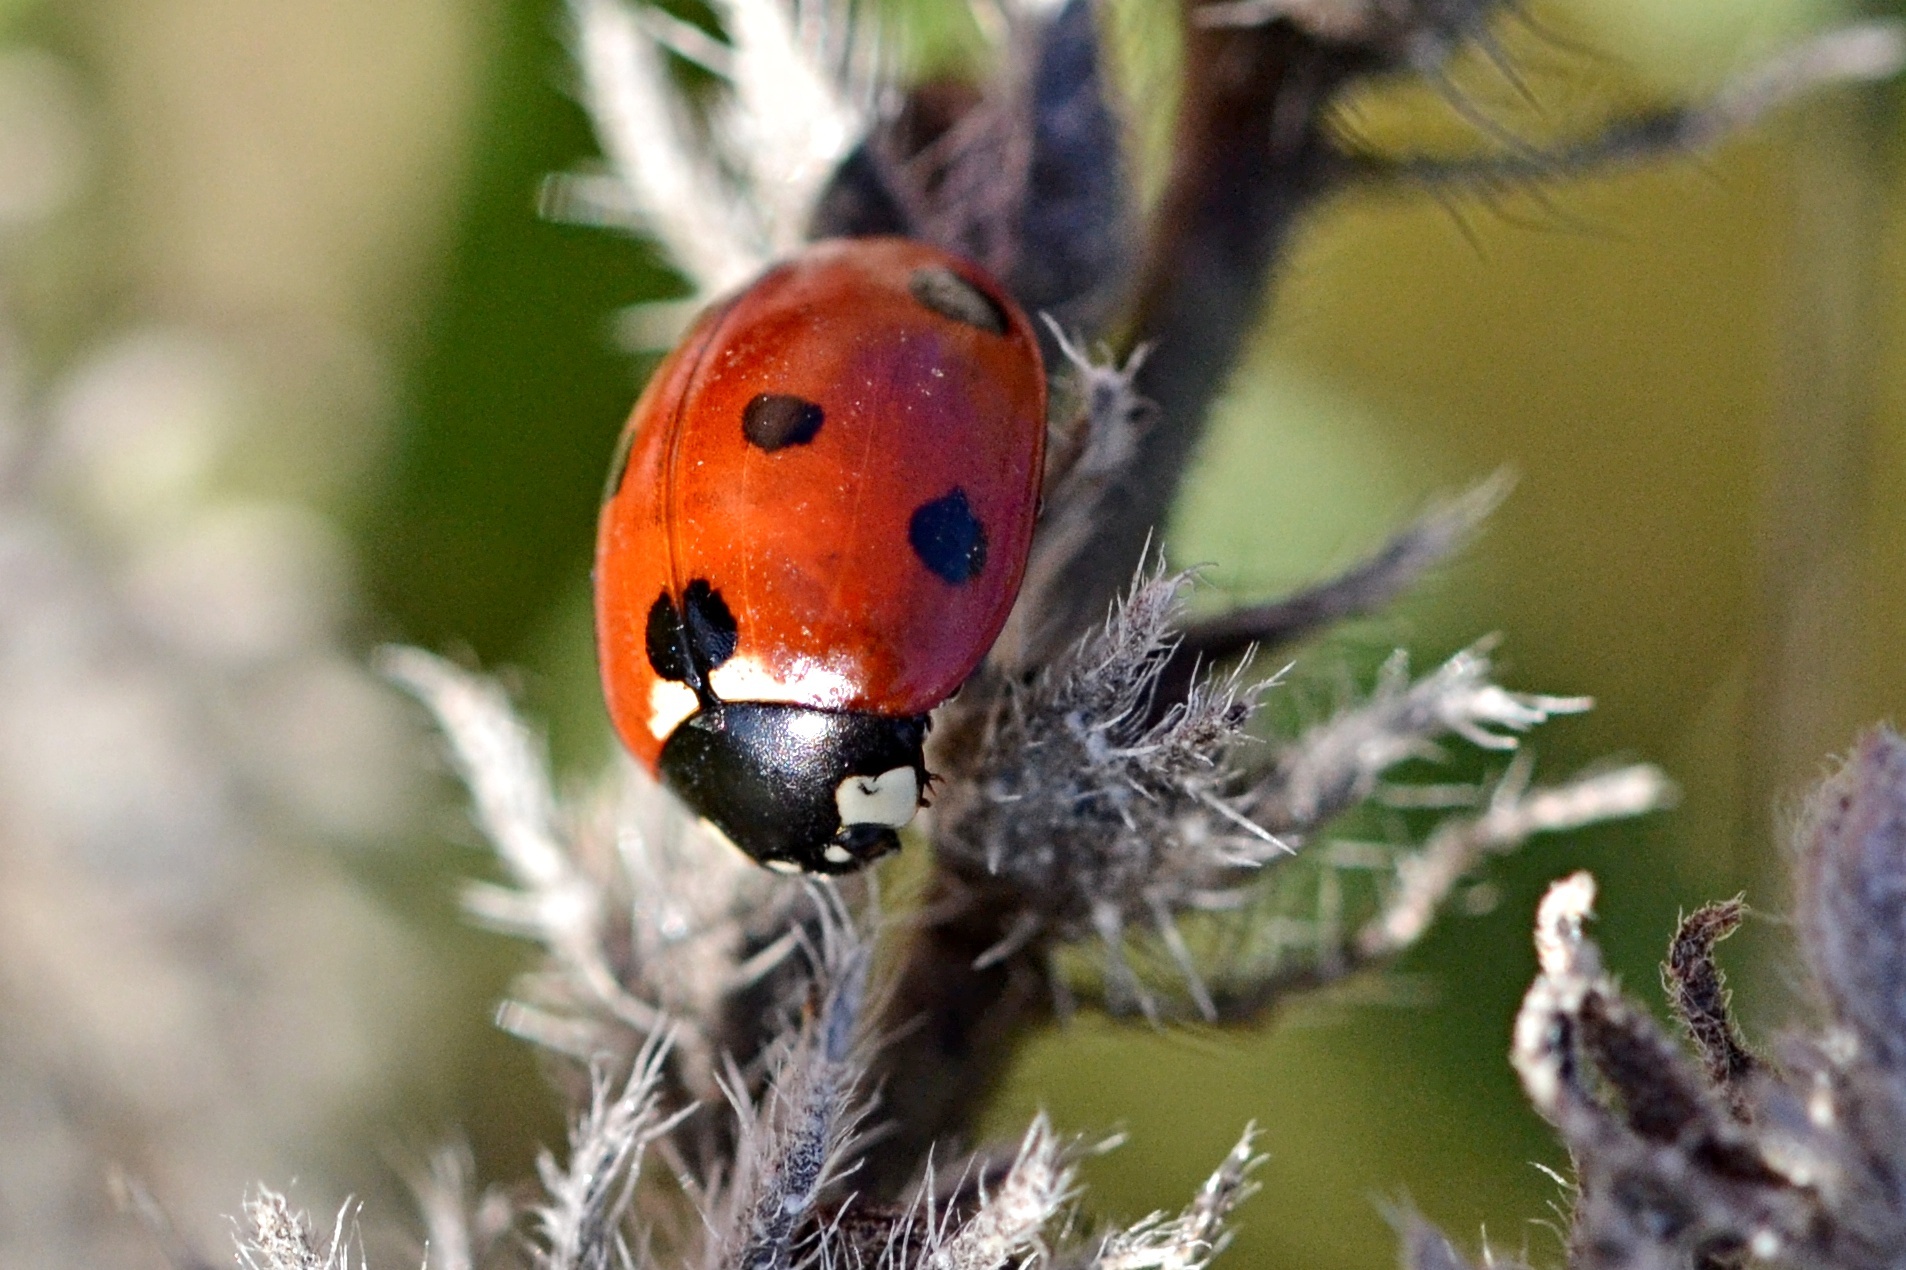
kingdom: Animalia
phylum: Arthropoda
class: Insecta
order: Coleoptera
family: Coccinellidae
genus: Coccinella
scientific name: Coccinella septempunctata
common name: Sevenspotted lady beetle
